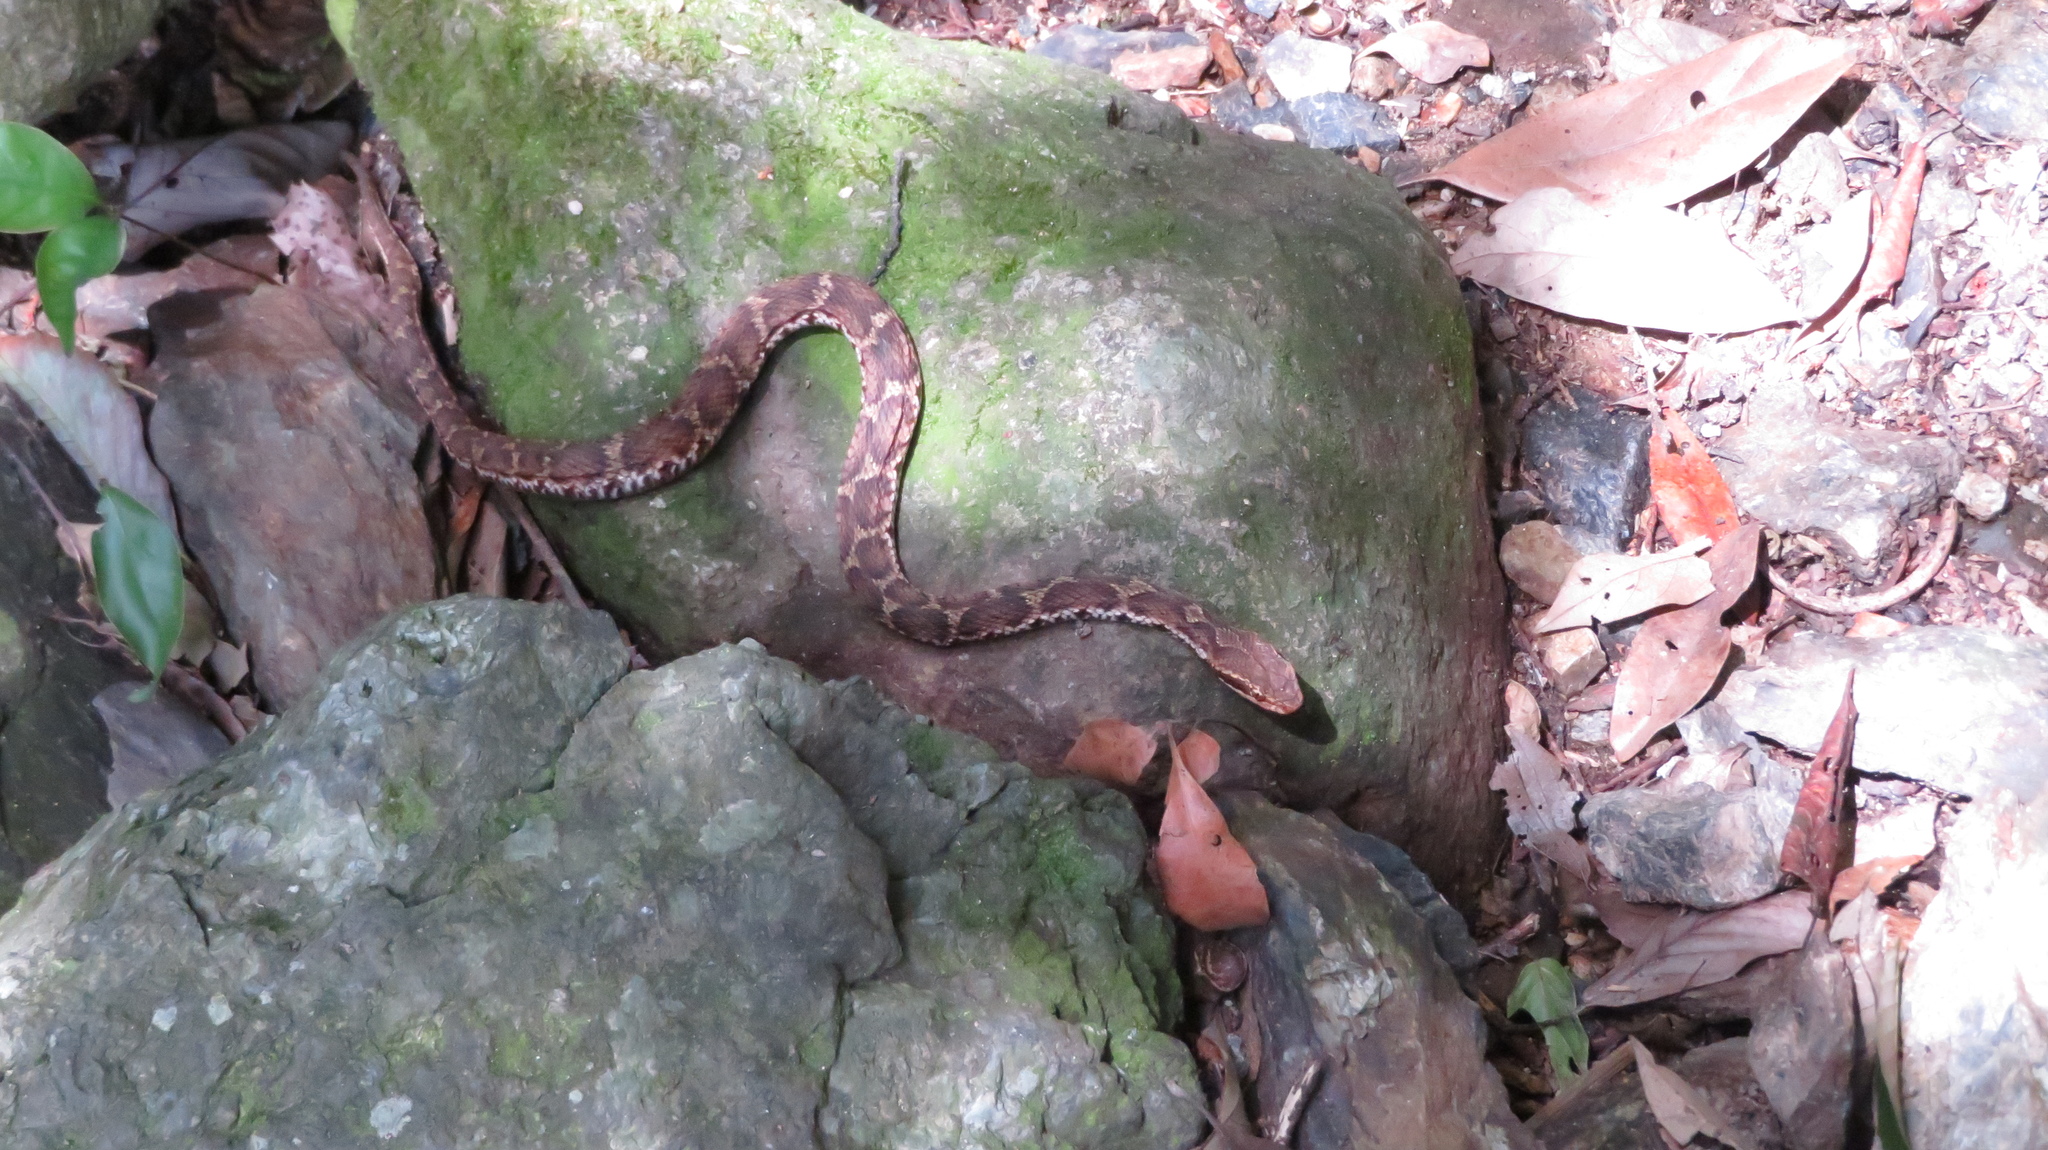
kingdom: Animalia
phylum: Chordata
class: Squamata
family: Viperidae
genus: Gloydius
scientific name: Gloydius blomhoffii
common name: Mamushi
